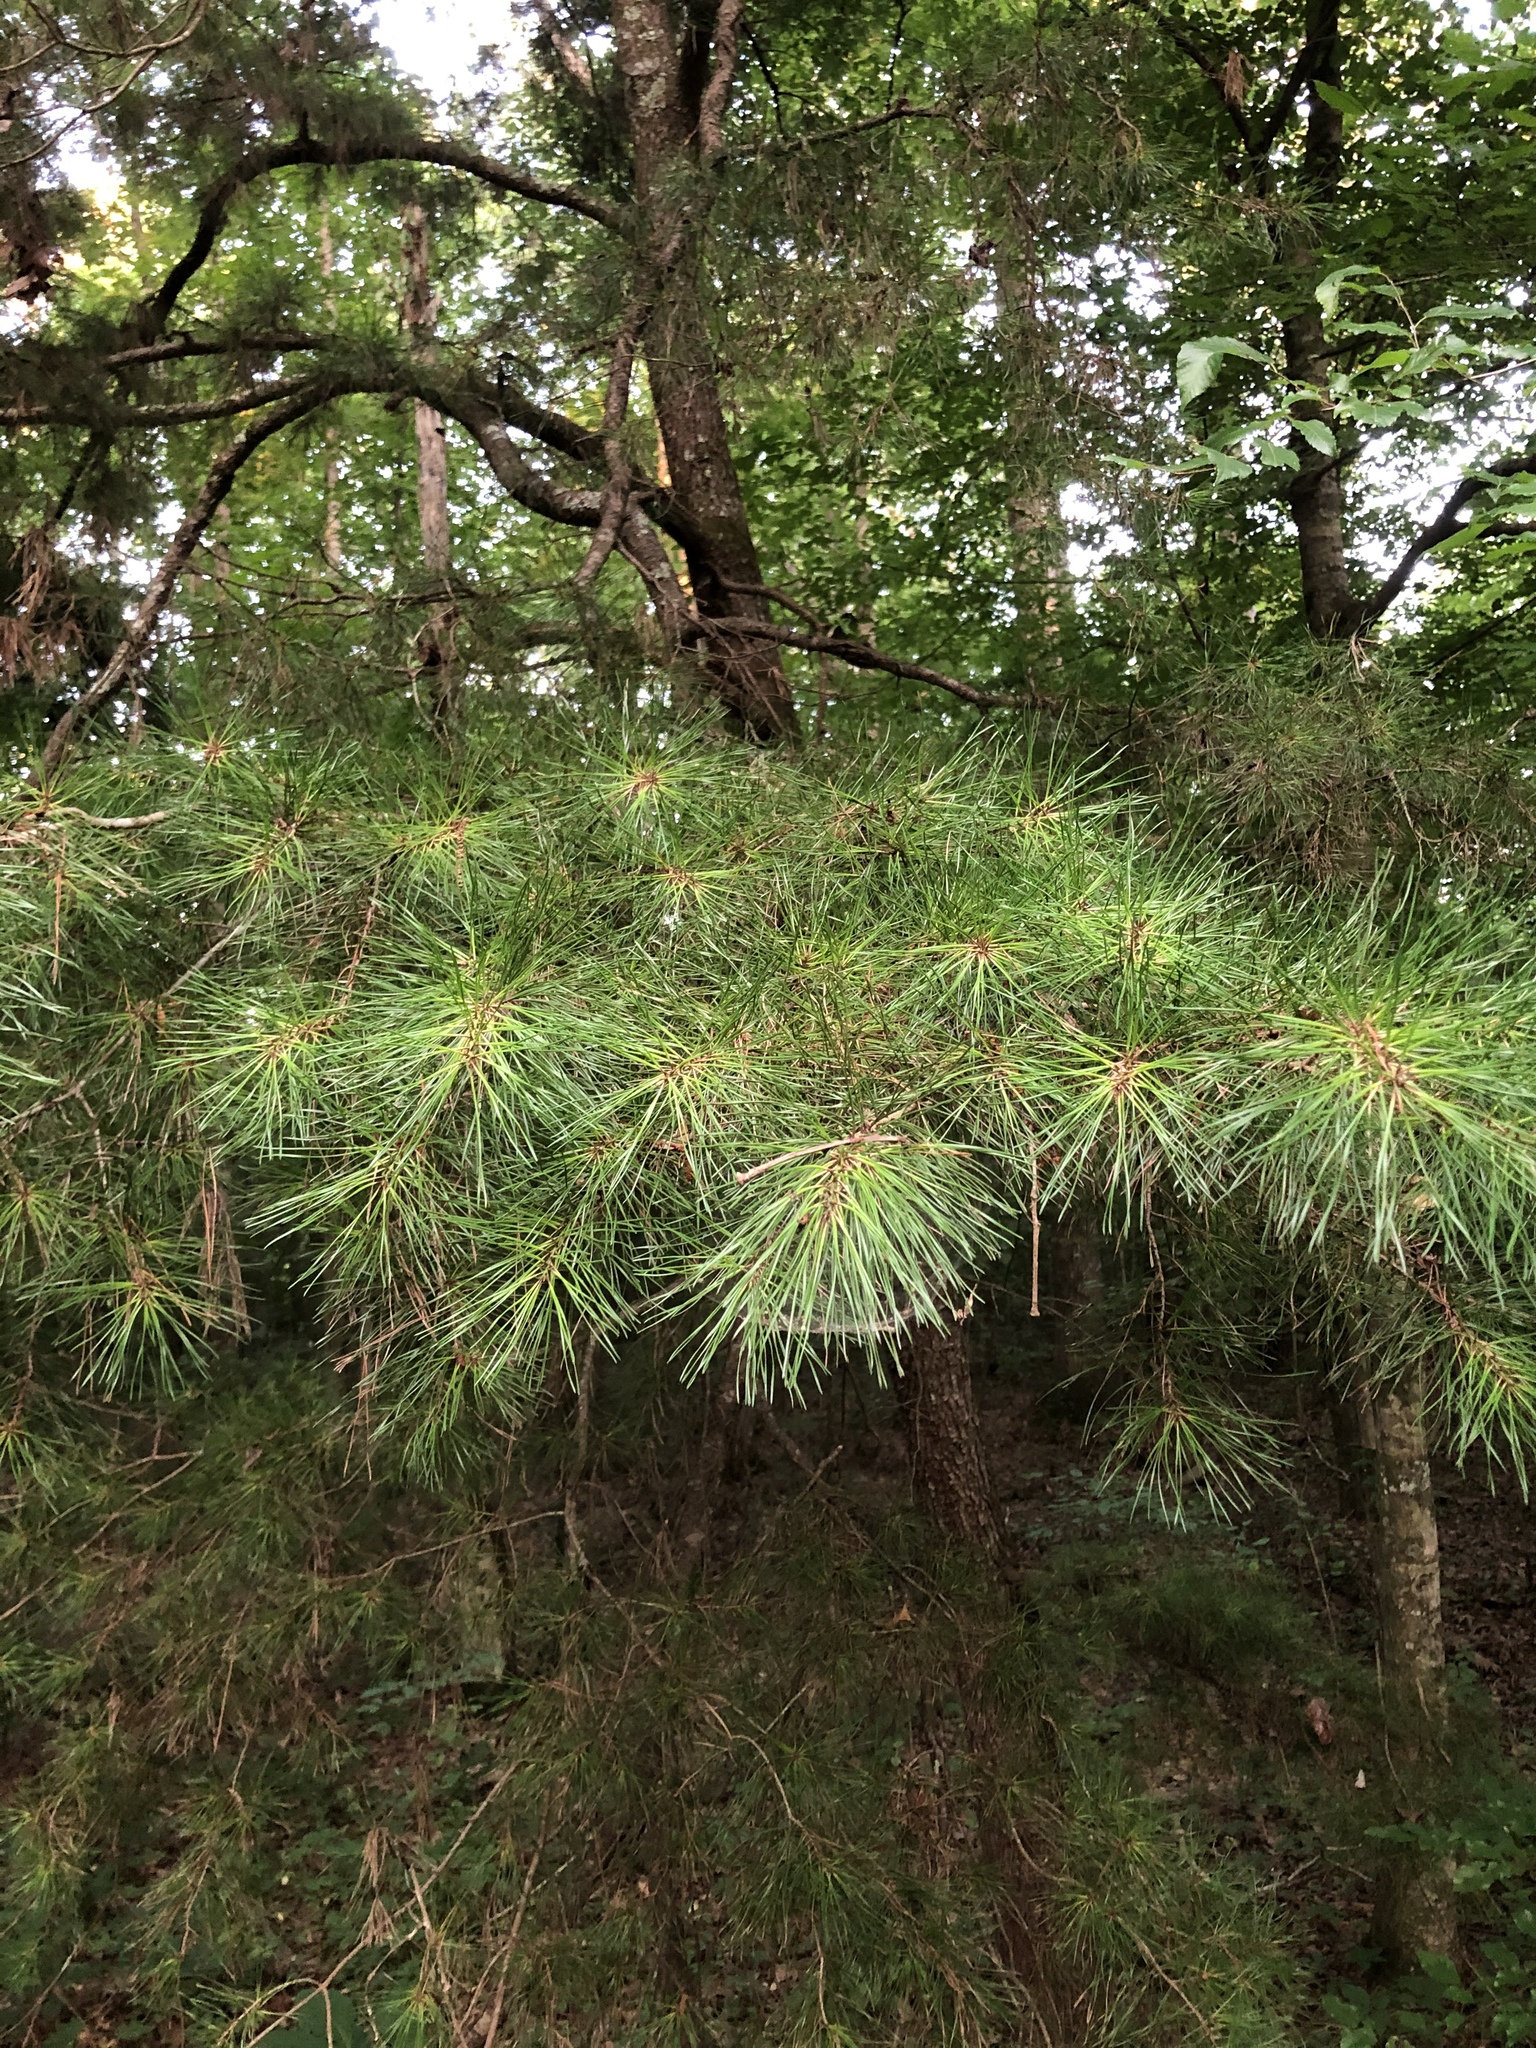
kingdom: Plantae
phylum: Tracheophyta
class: Pinopsida
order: Pinales
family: Pinaceae
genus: Pinus
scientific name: Pinus glabra
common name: Spruce pine
